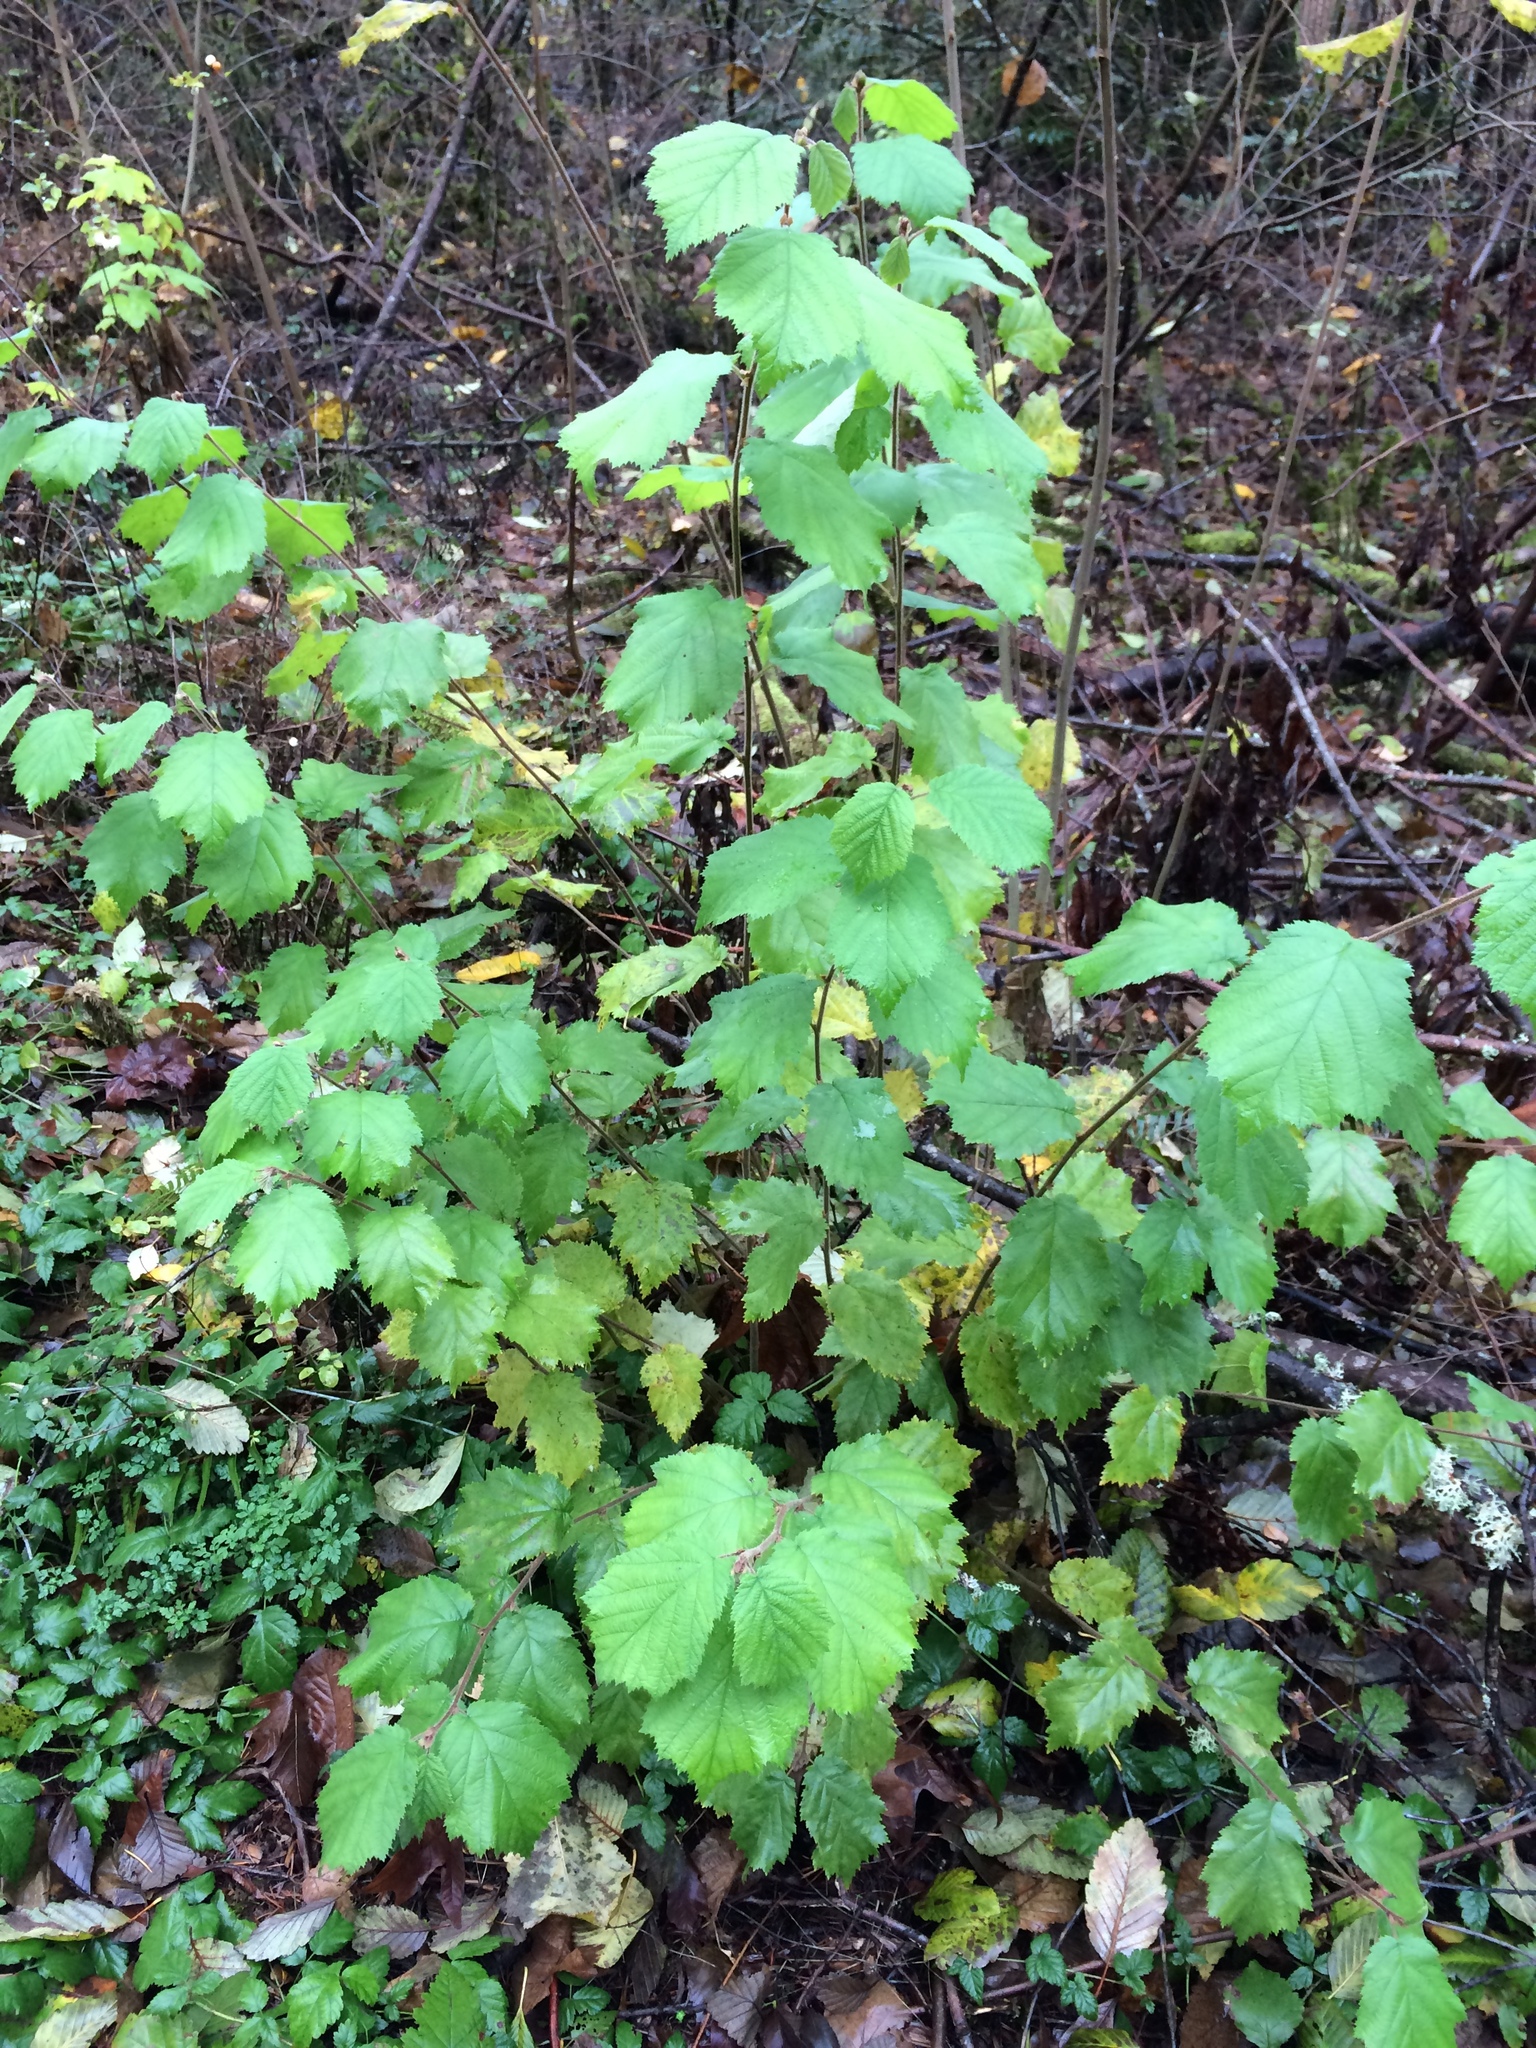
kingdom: Plantae
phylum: Tracheophyta
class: Magnoliopsida
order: Fagales
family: Betulaceae
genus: Corylus
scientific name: Corylus avellana
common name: European hazel
